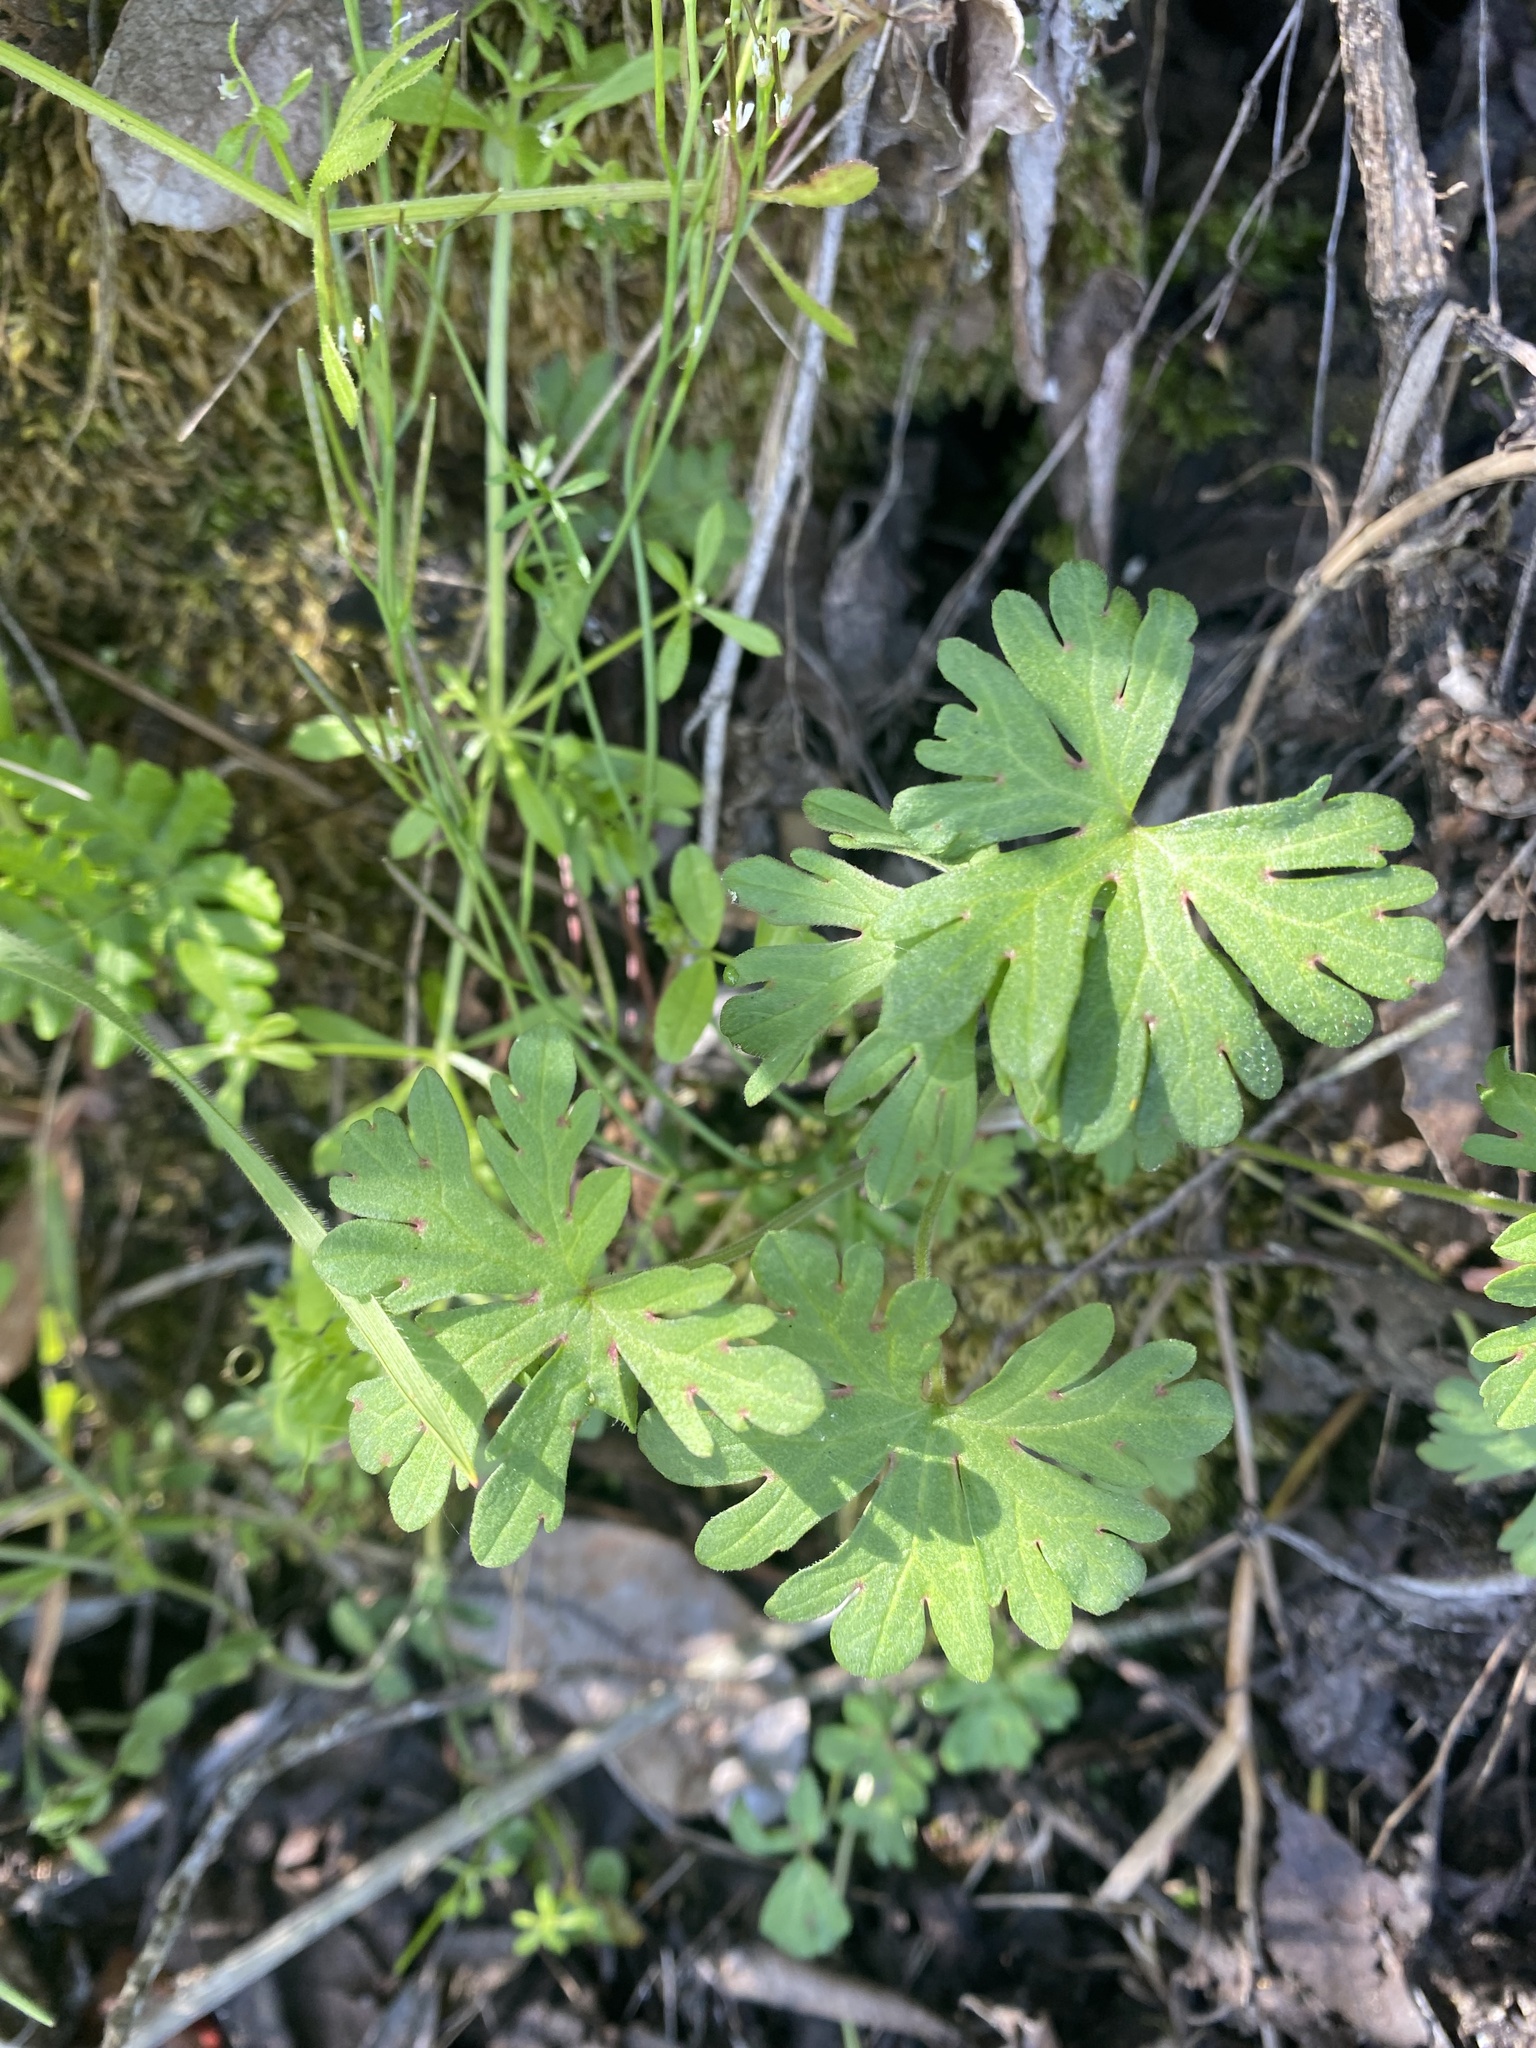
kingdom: Plantae
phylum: Tracheophyta
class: Magnoliopsida
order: Geraniales
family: Geraniaceae
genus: Geranium
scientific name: Geranium
